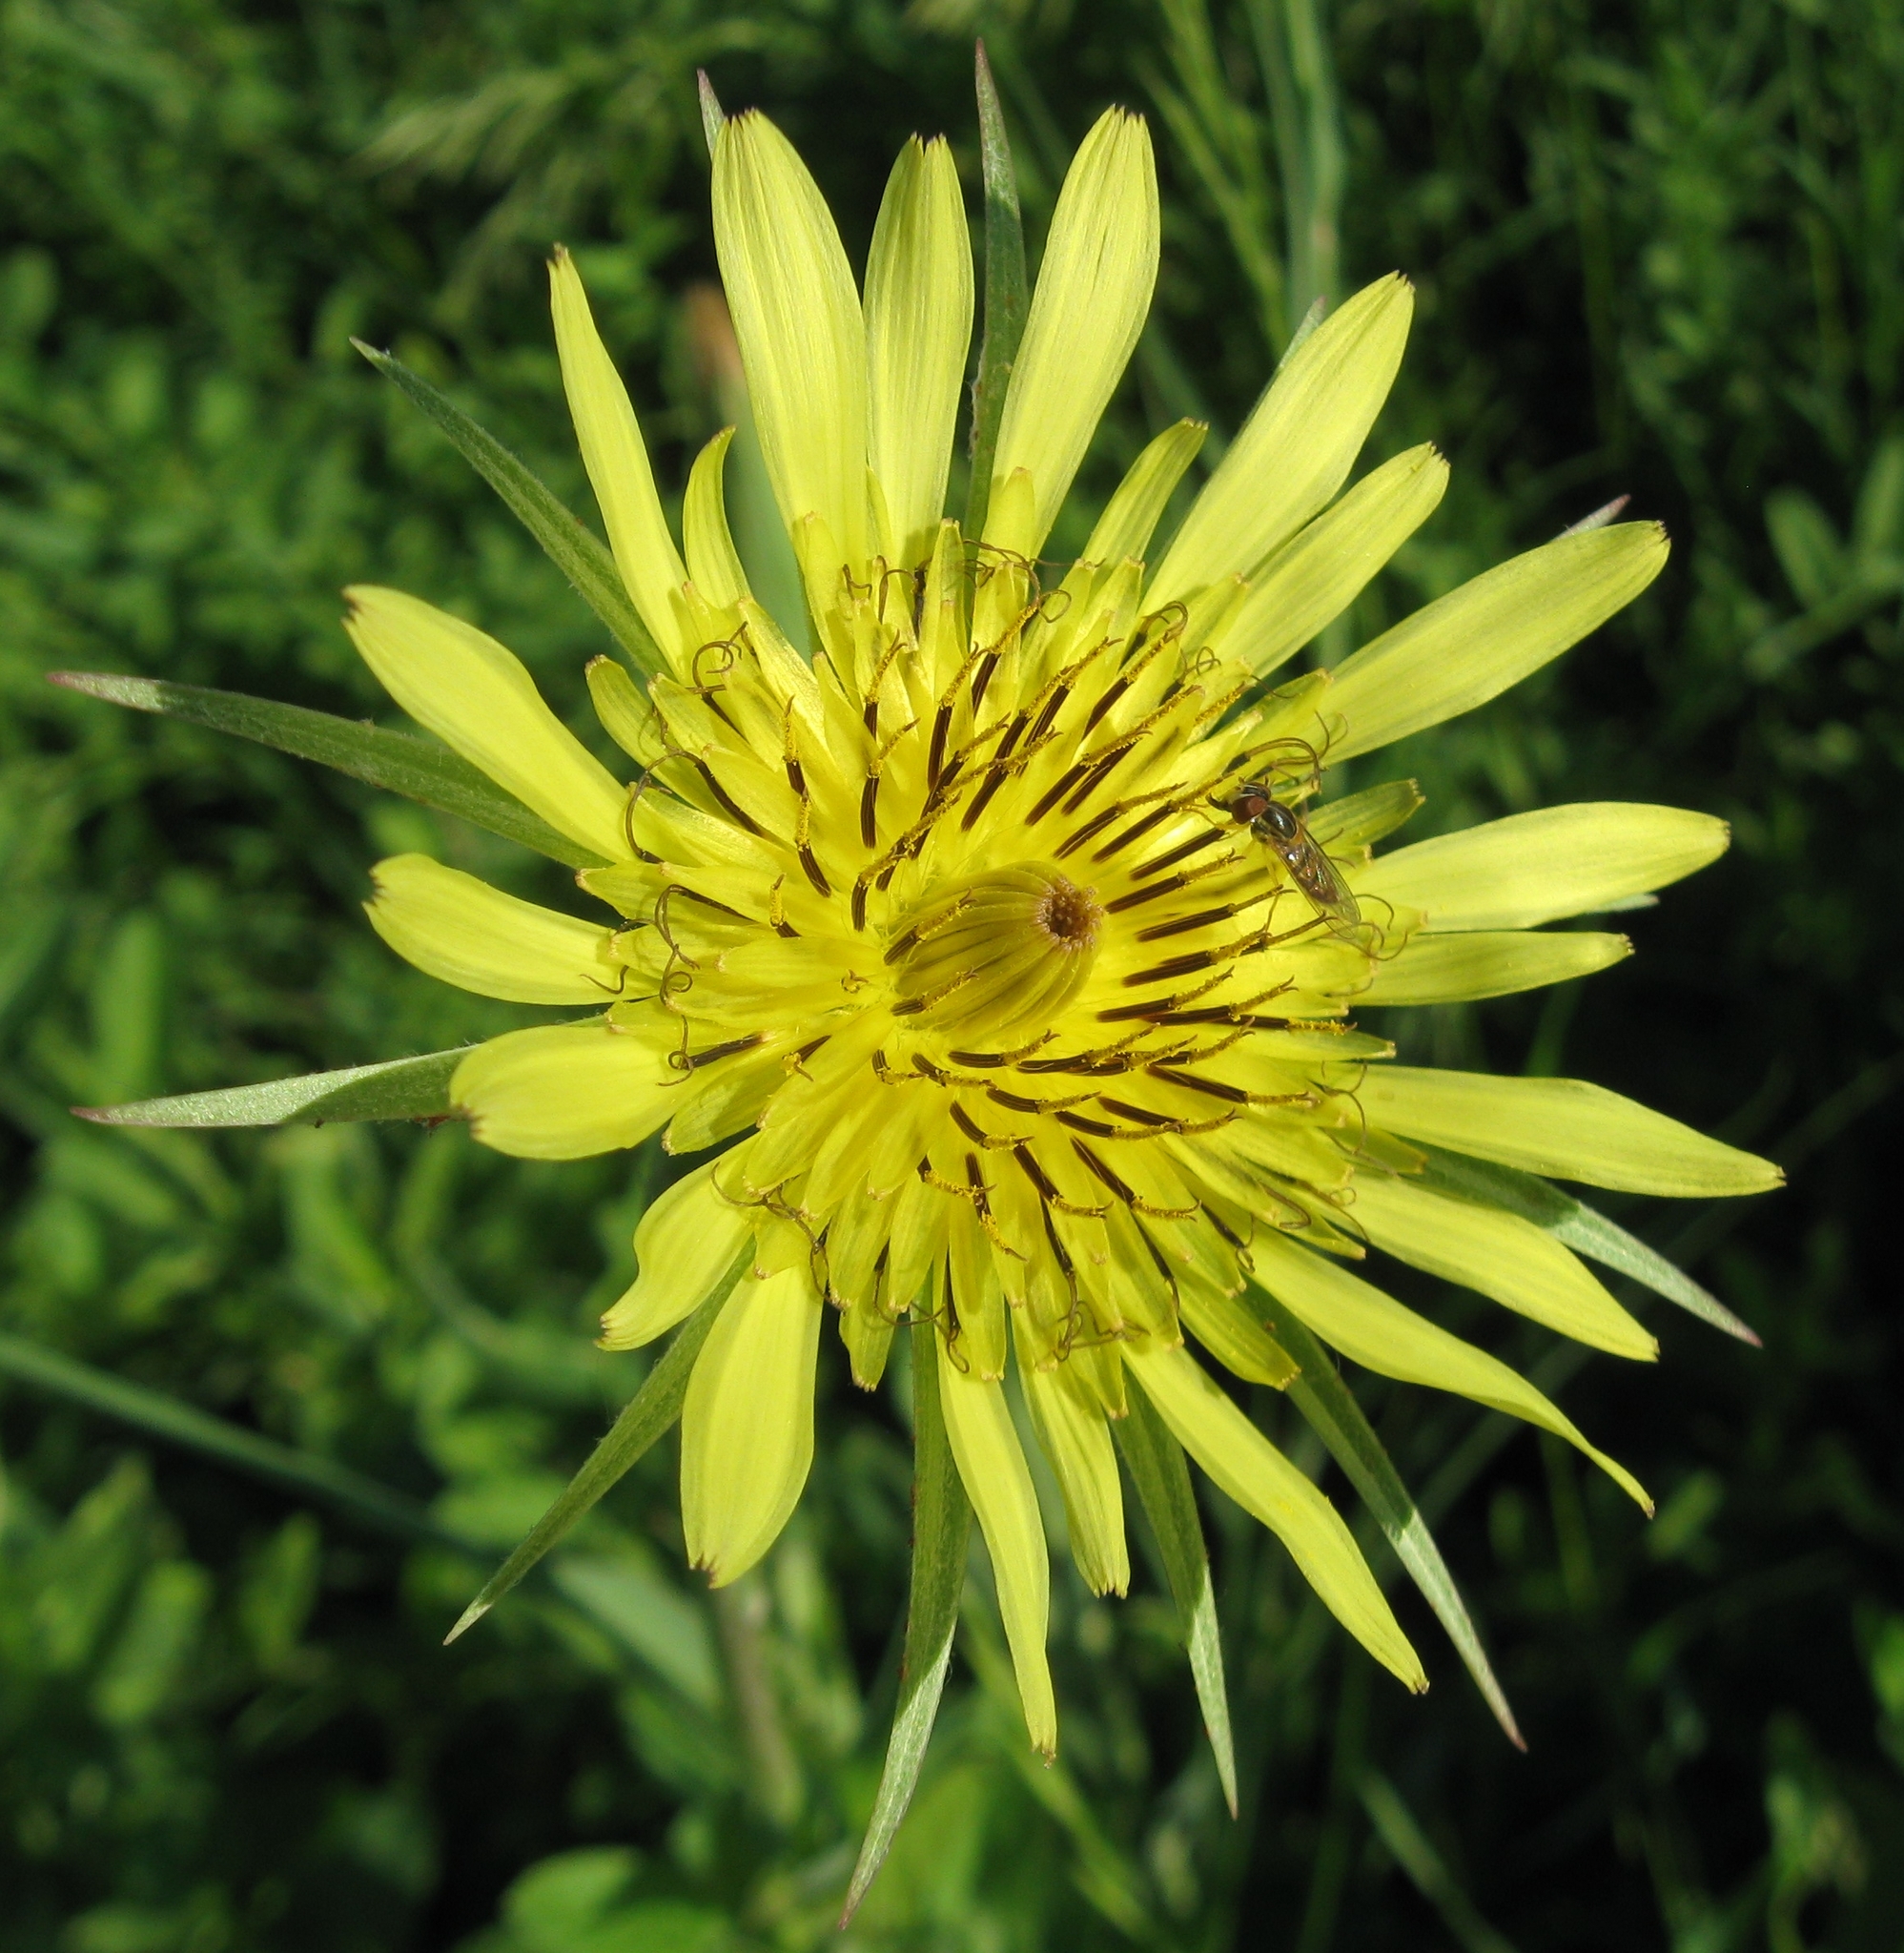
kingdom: Plantae
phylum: Tracheophyta
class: Magnoliopsida
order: Asterales
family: Asteraceae
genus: Tragopogon
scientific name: Tragopogon dubius
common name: Yellow salsify
